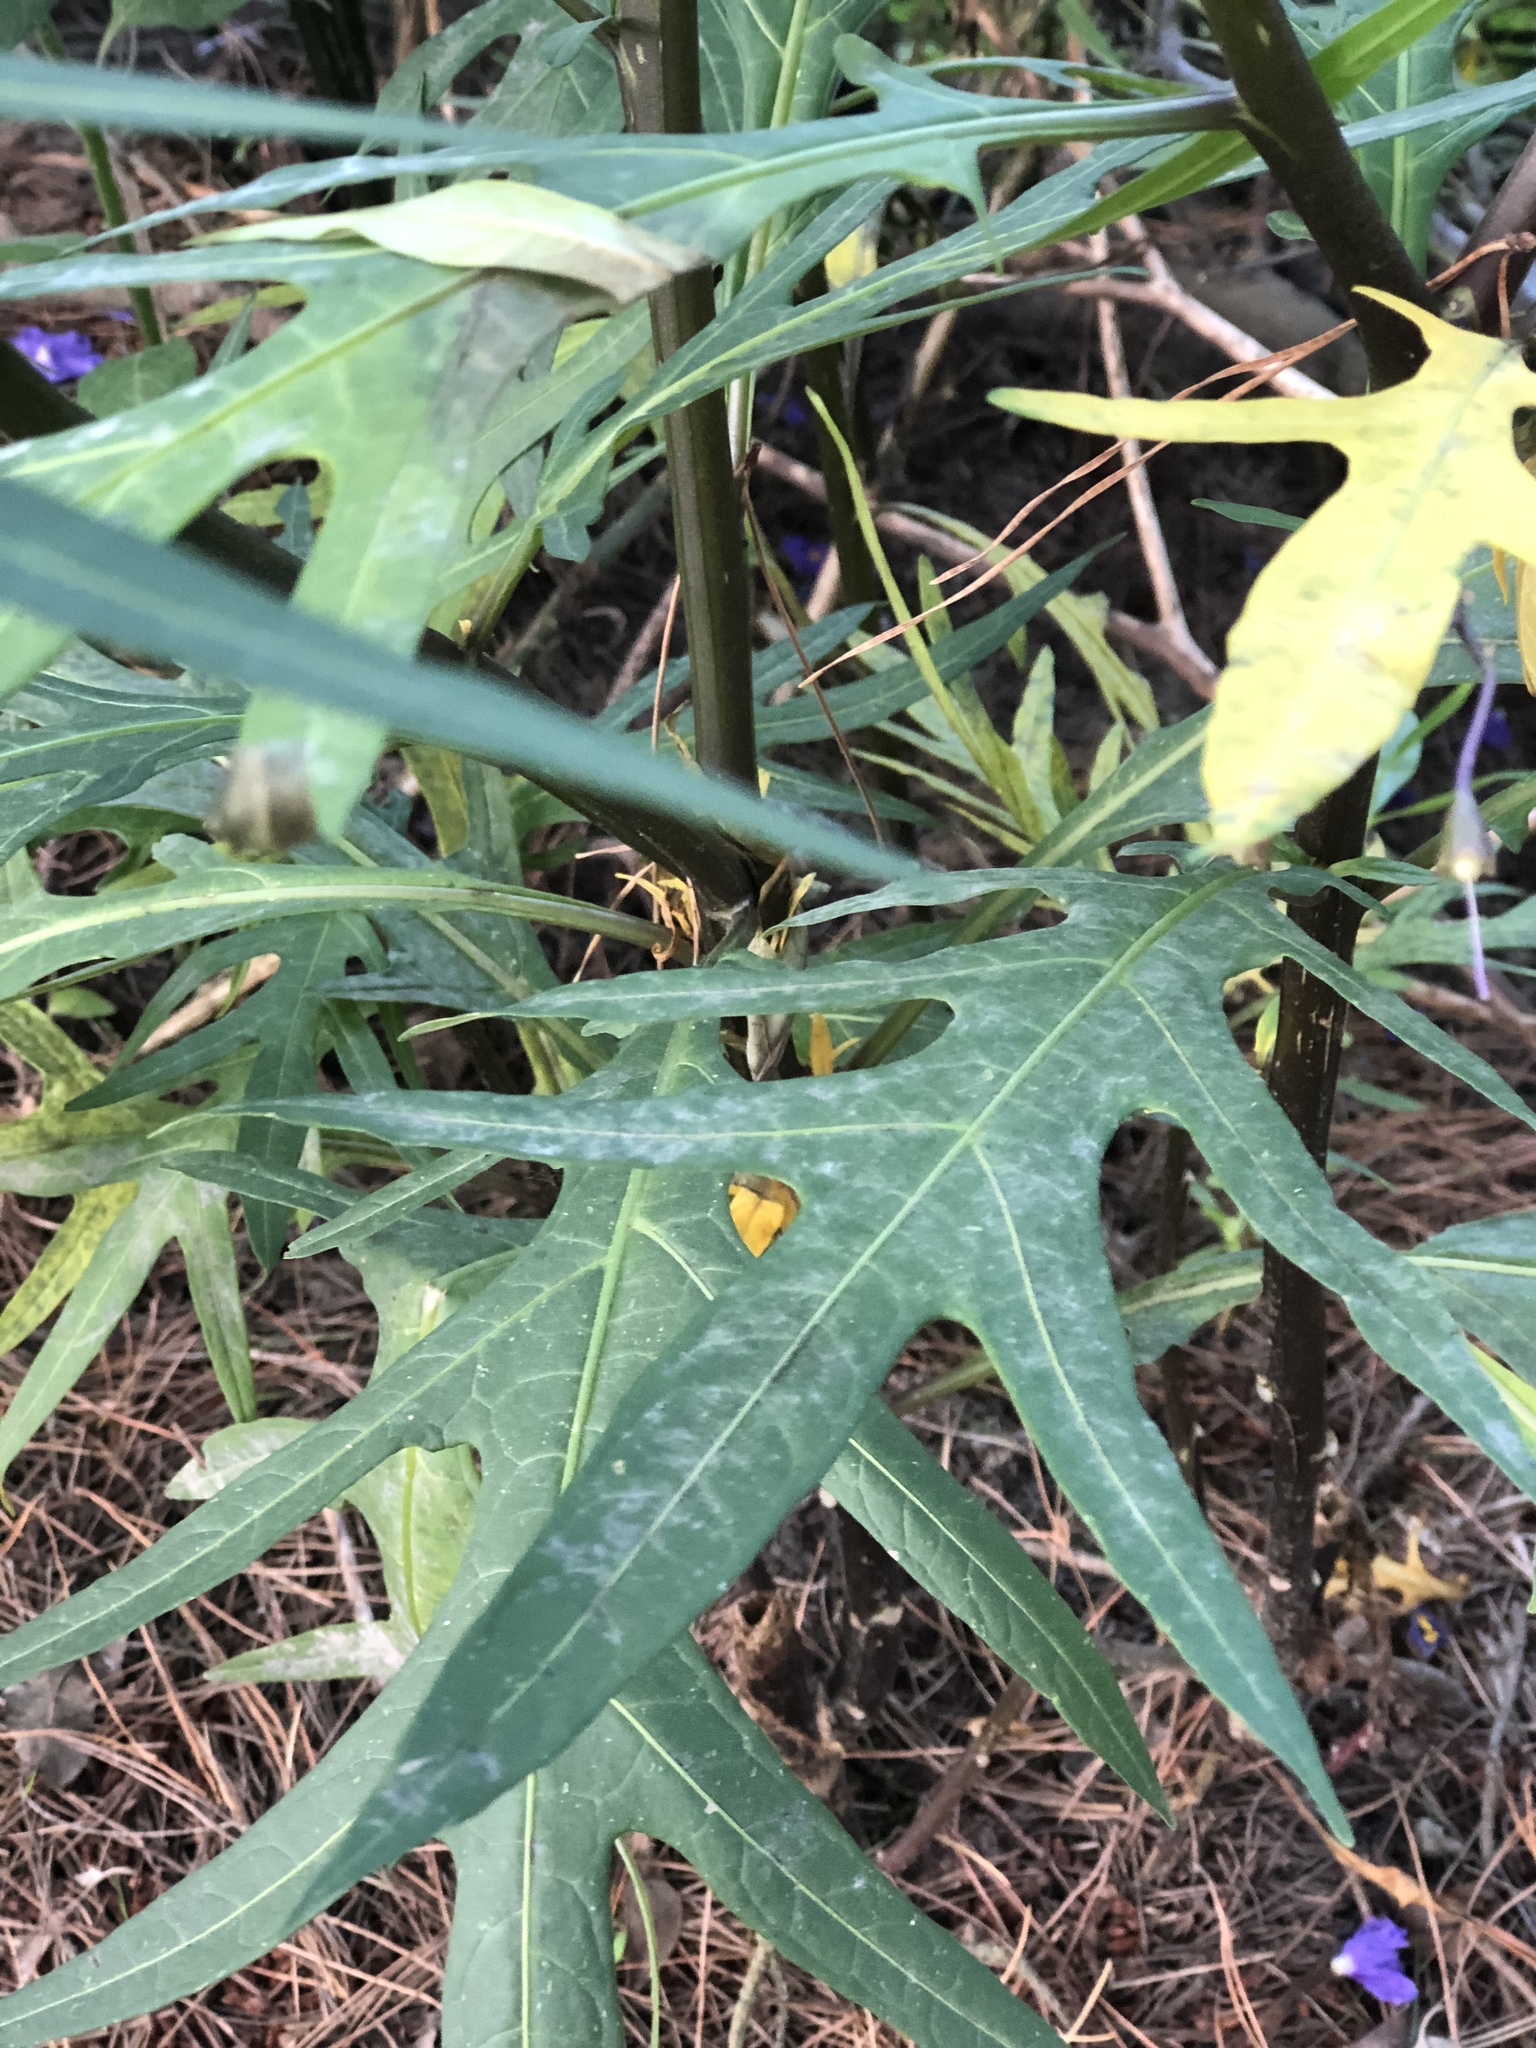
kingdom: Plantae
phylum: Tracheophyta
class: Magnoliopsida
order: Solanales
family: Solanaceae
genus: Solanum
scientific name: Solanum laciniatum
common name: Kangaroo-apple
